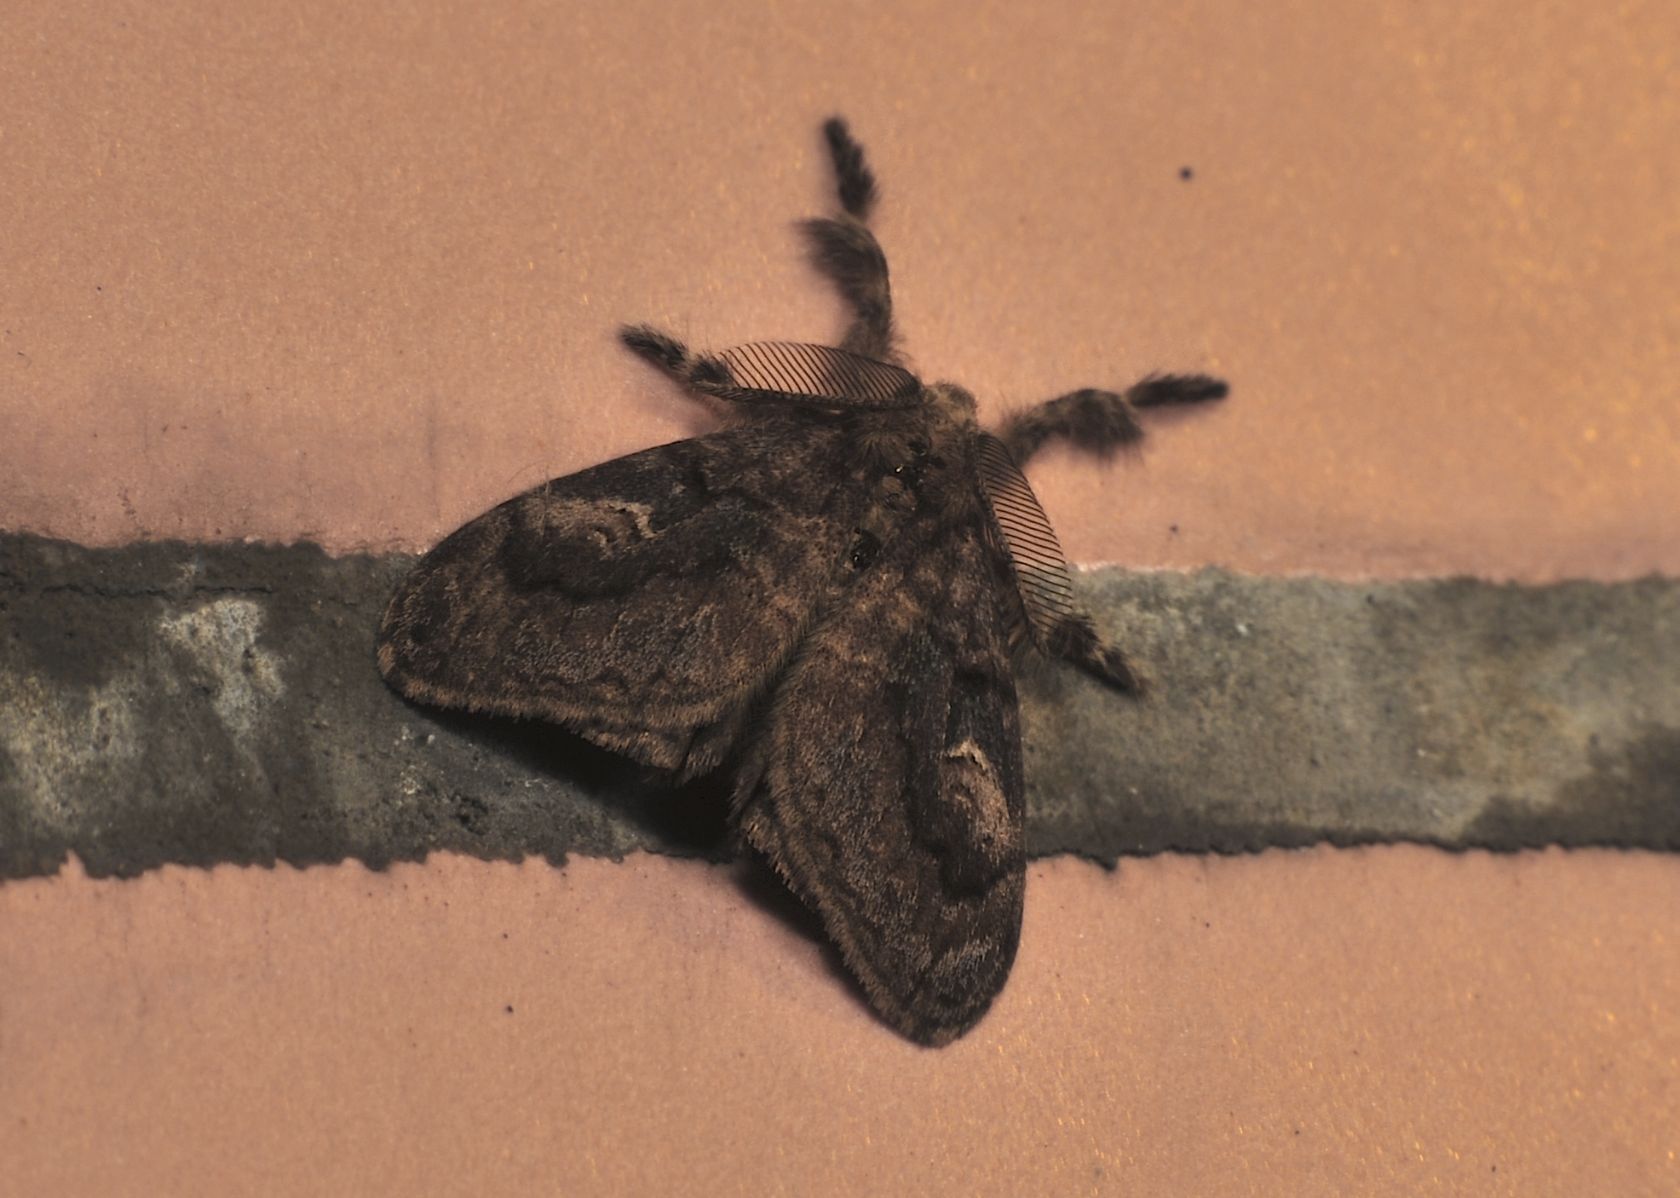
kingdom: Animalia
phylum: Arthropoda
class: Insecta
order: Lepidoptera
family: Erebidae
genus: Orgyia
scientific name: Orgyia postica
